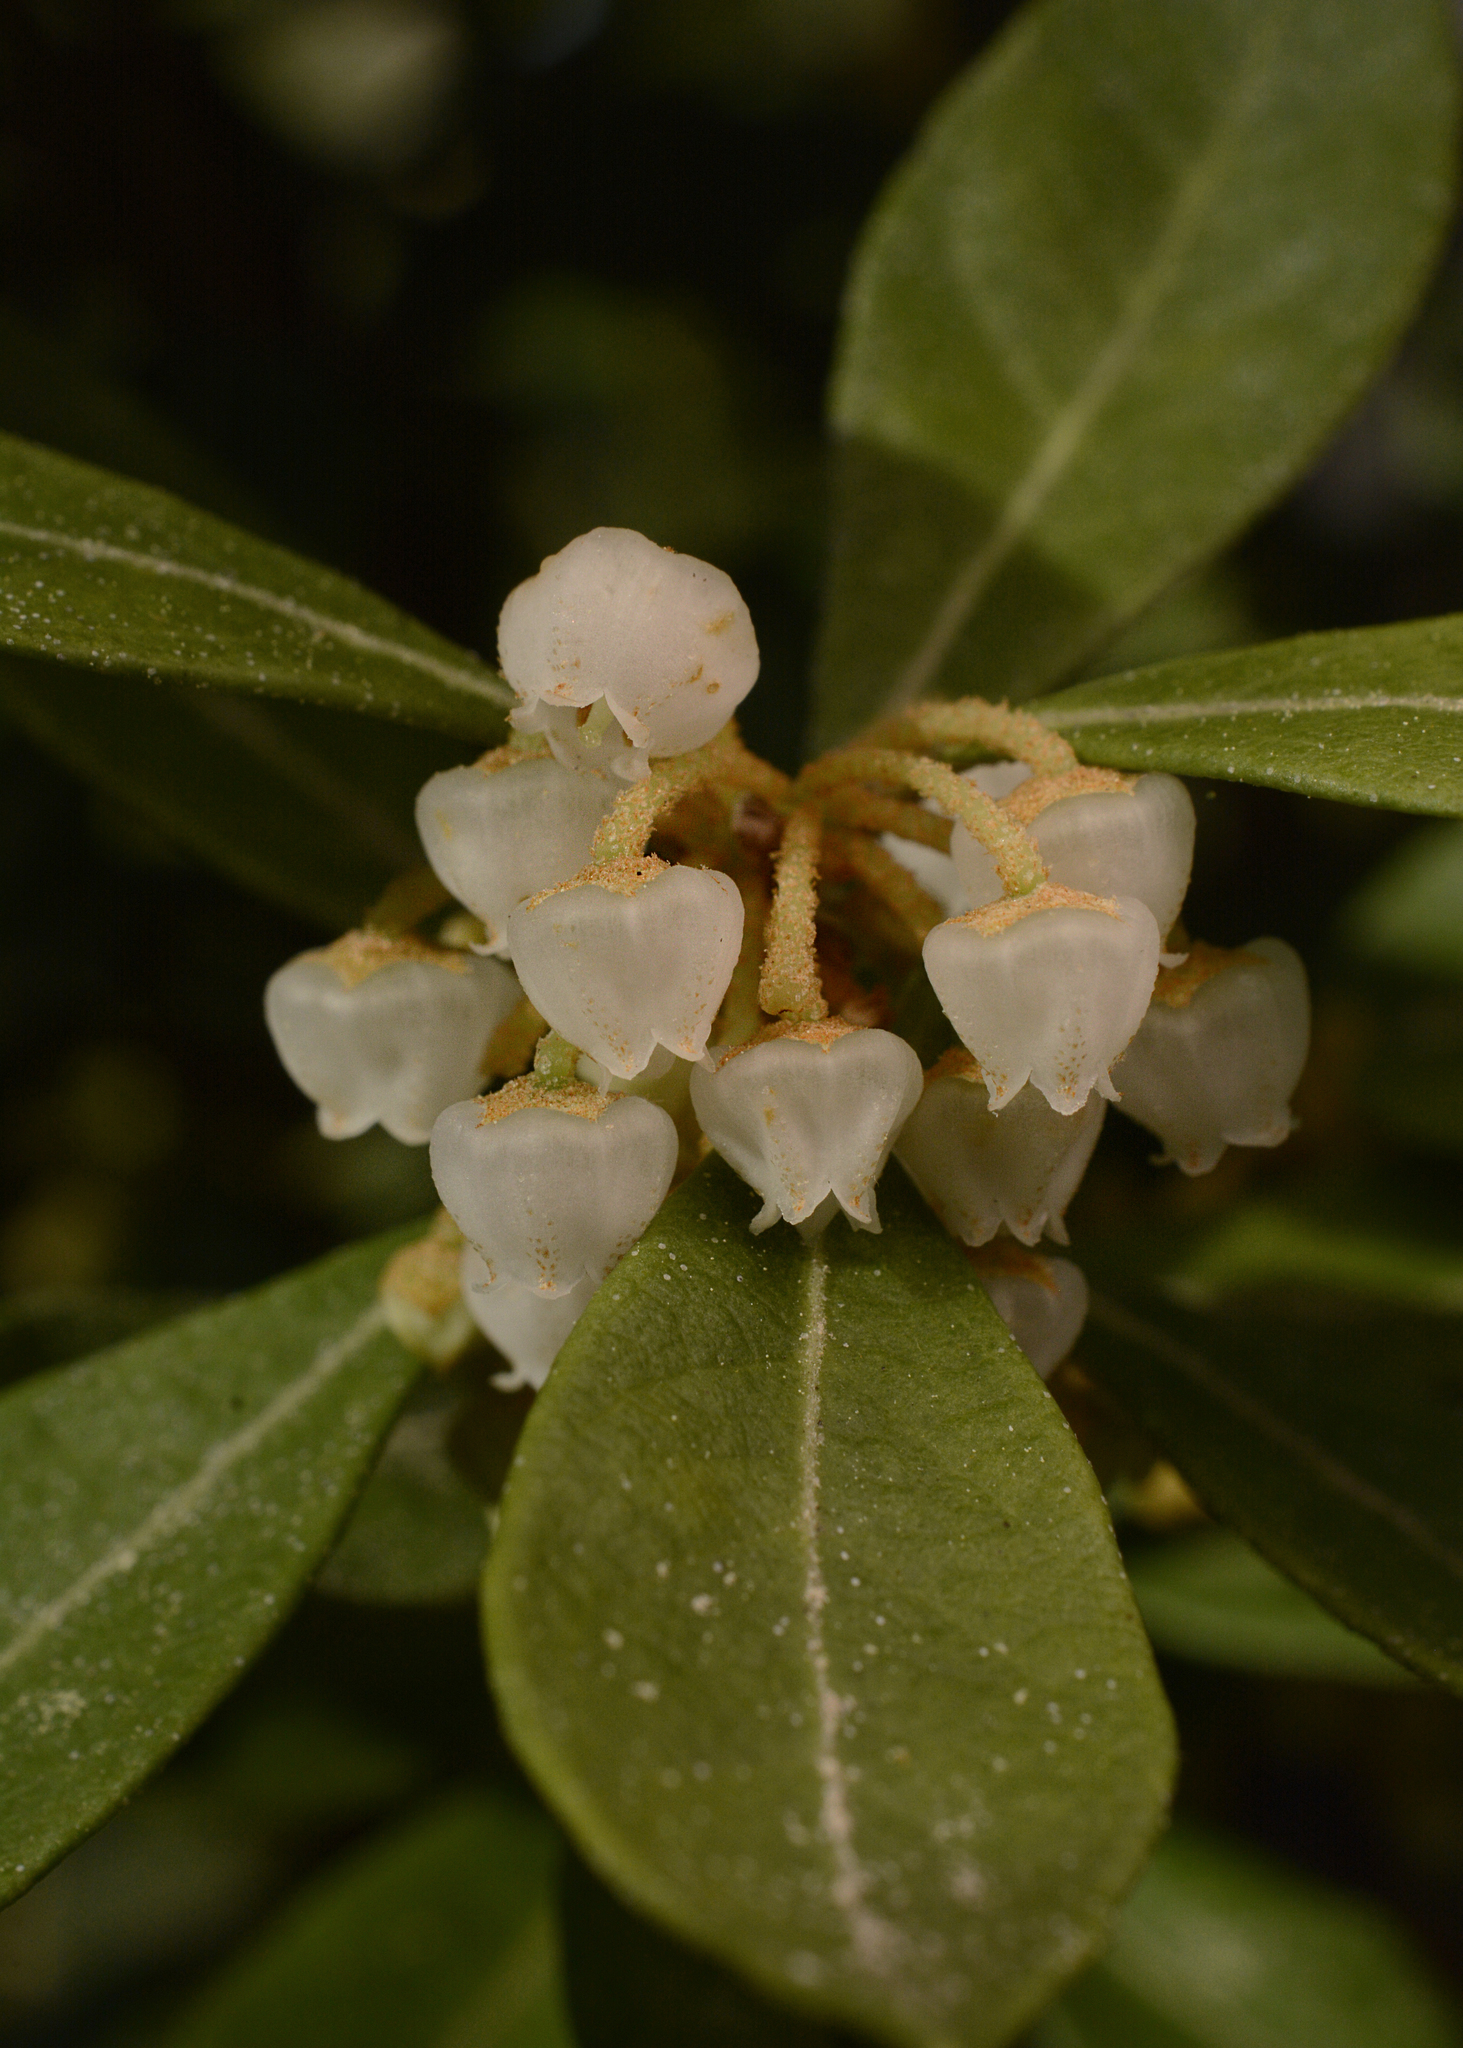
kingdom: Plantae
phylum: Tracheophyta
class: Magnoliopsida
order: Ericales
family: Ericaceae
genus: Lyonia
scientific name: Lyonia ferruginea
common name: Rusty lyonia
